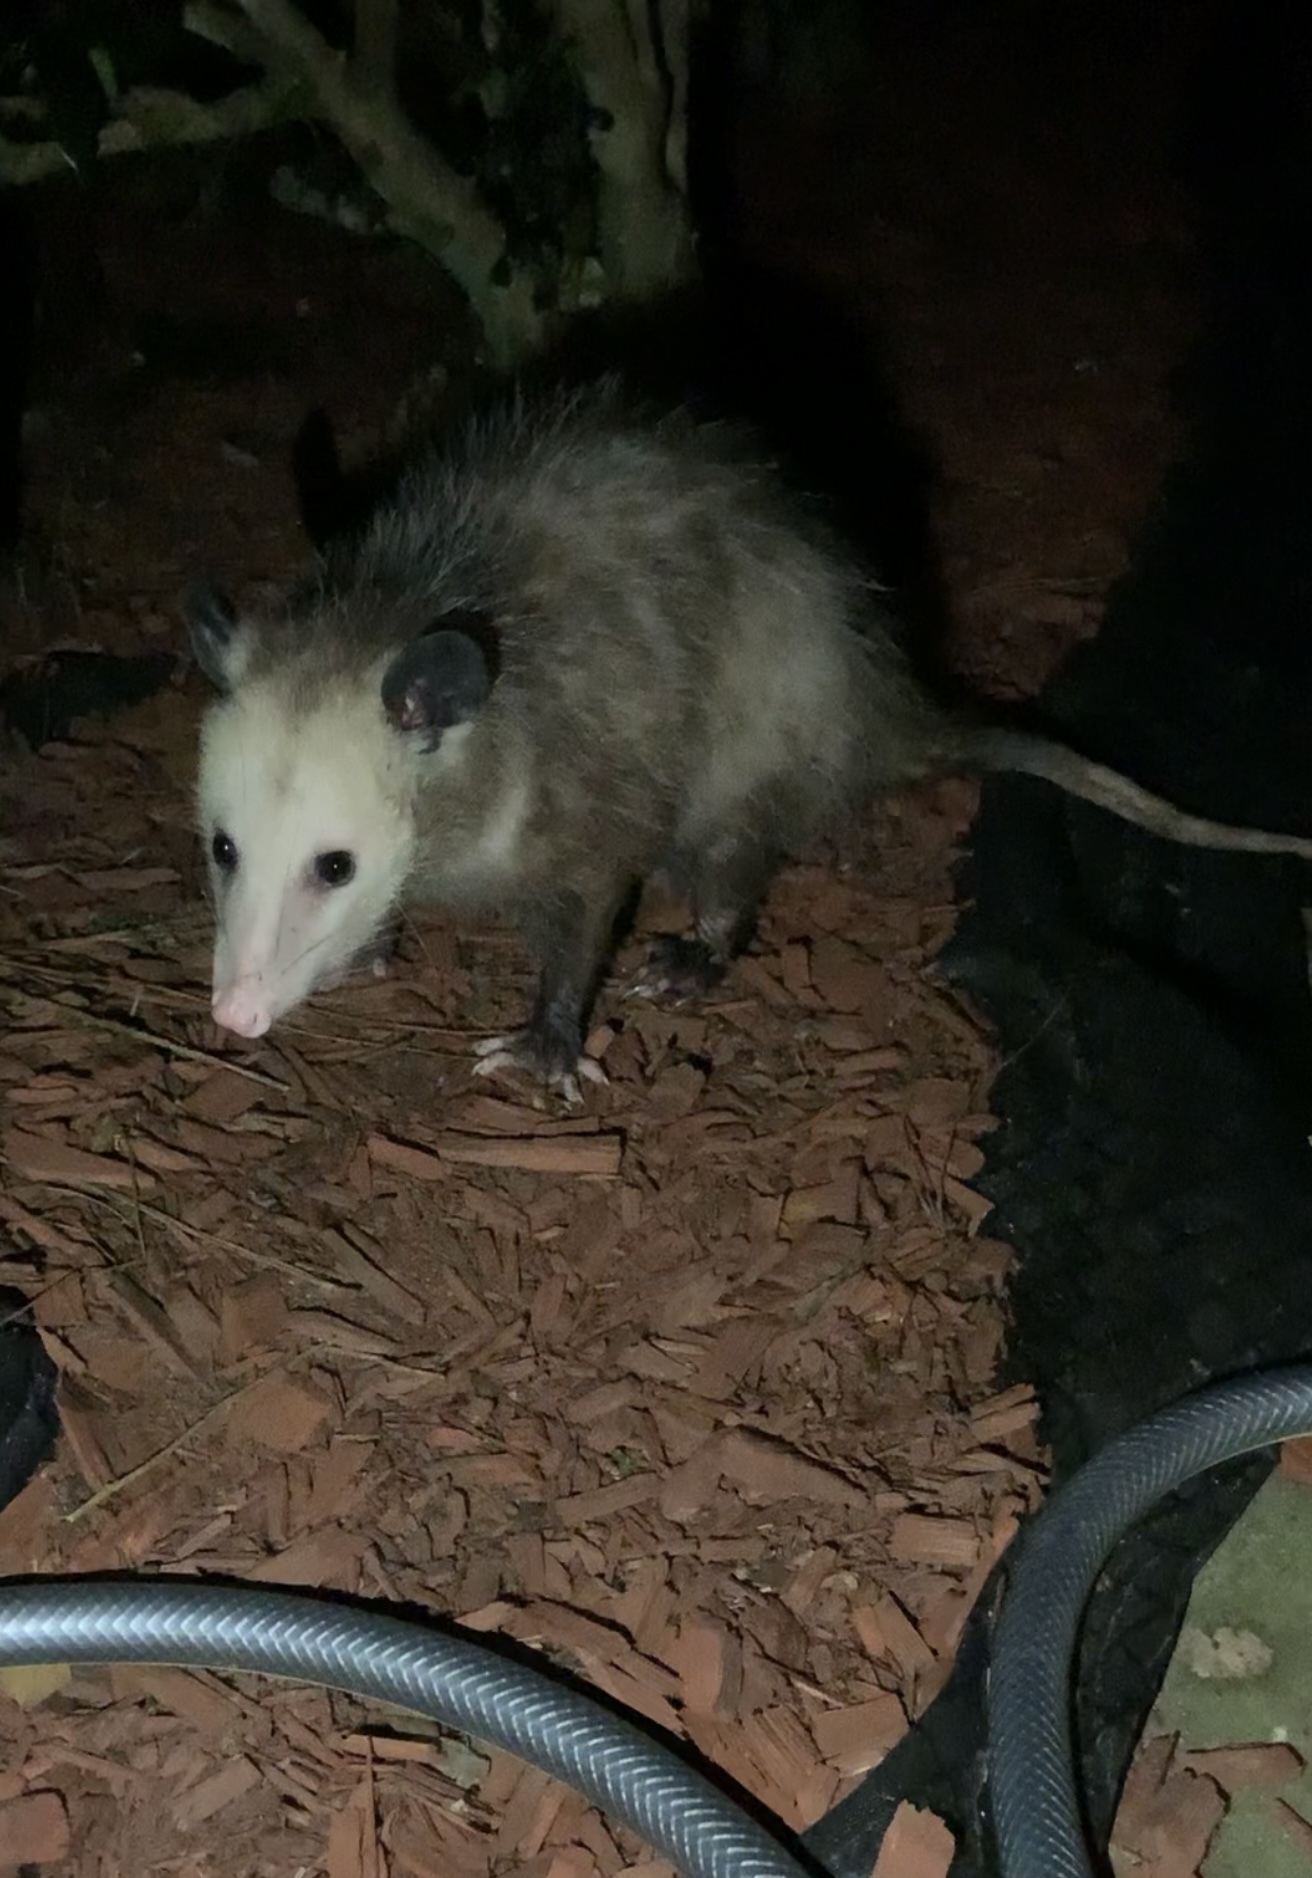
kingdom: Animalia
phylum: Chordata
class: Mammalia
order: Didelphimorphia
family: Didelphidae
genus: Didelphis
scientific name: Didelphis virginiana
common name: Virginia opossum
